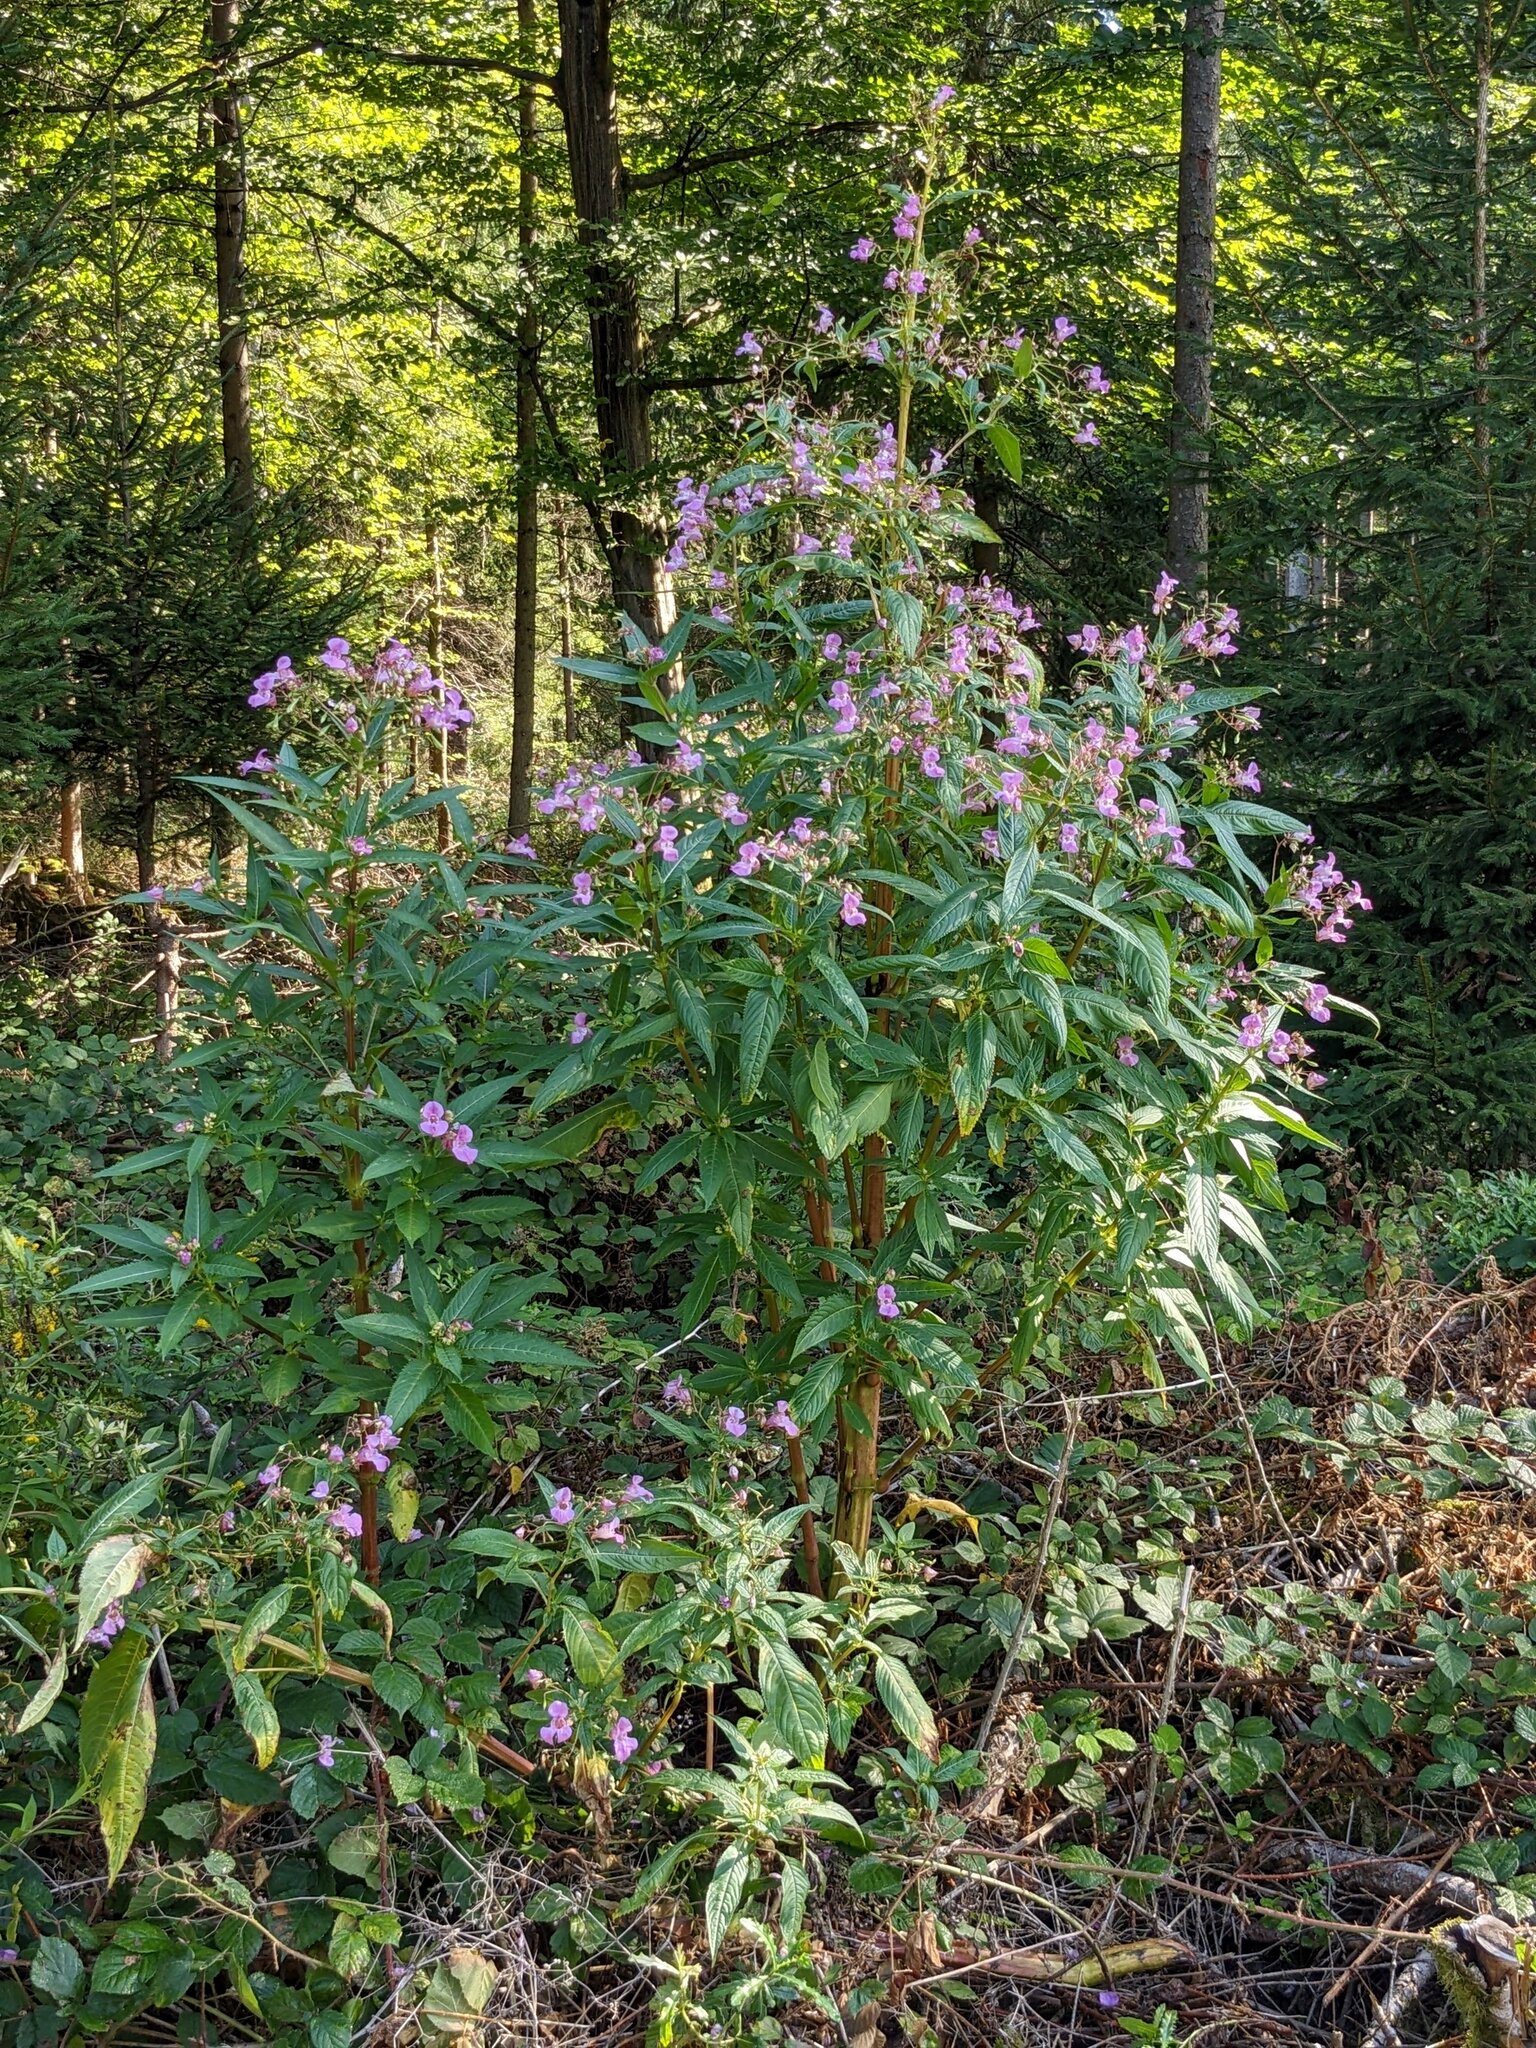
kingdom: Plantae
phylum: Tracheophyta
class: Magnoliopsida
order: Ericales
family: Balsaminaceae
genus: Impatiens
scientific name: Impatiens glandulifera
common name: Himalayan balsam
